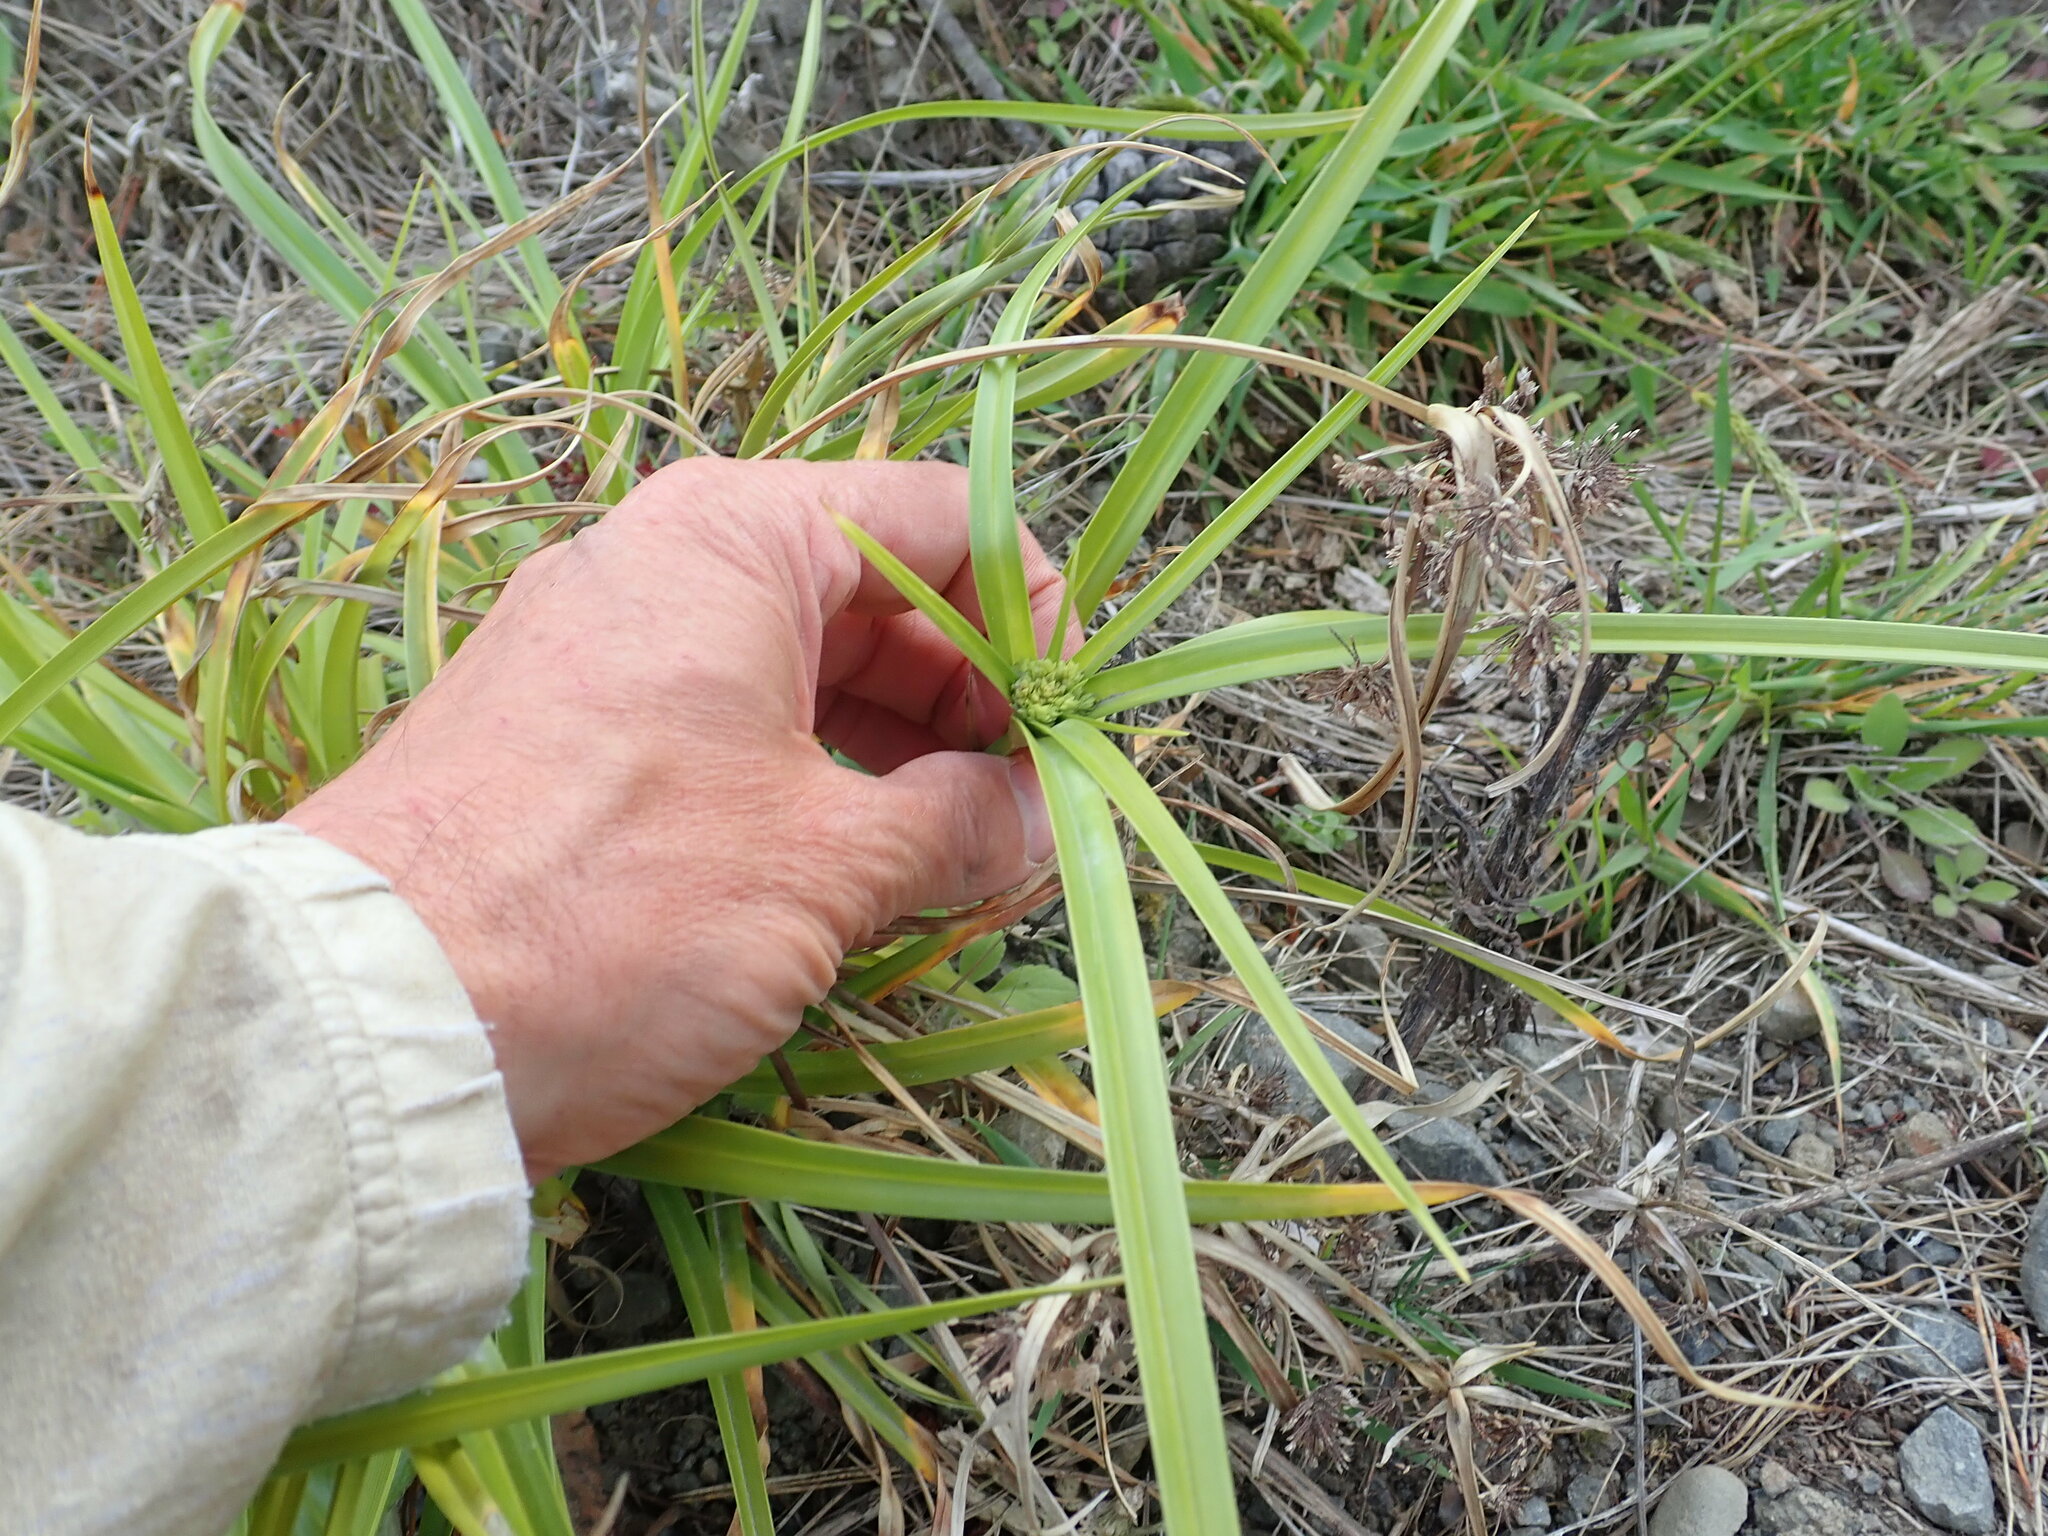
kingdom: Plantae
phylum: Tracheophyta
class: Liliopsida
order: Poales
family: Cyperaceae
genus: Cyperus
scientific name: Cyperus eragrostis
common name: Tall flatsedge
